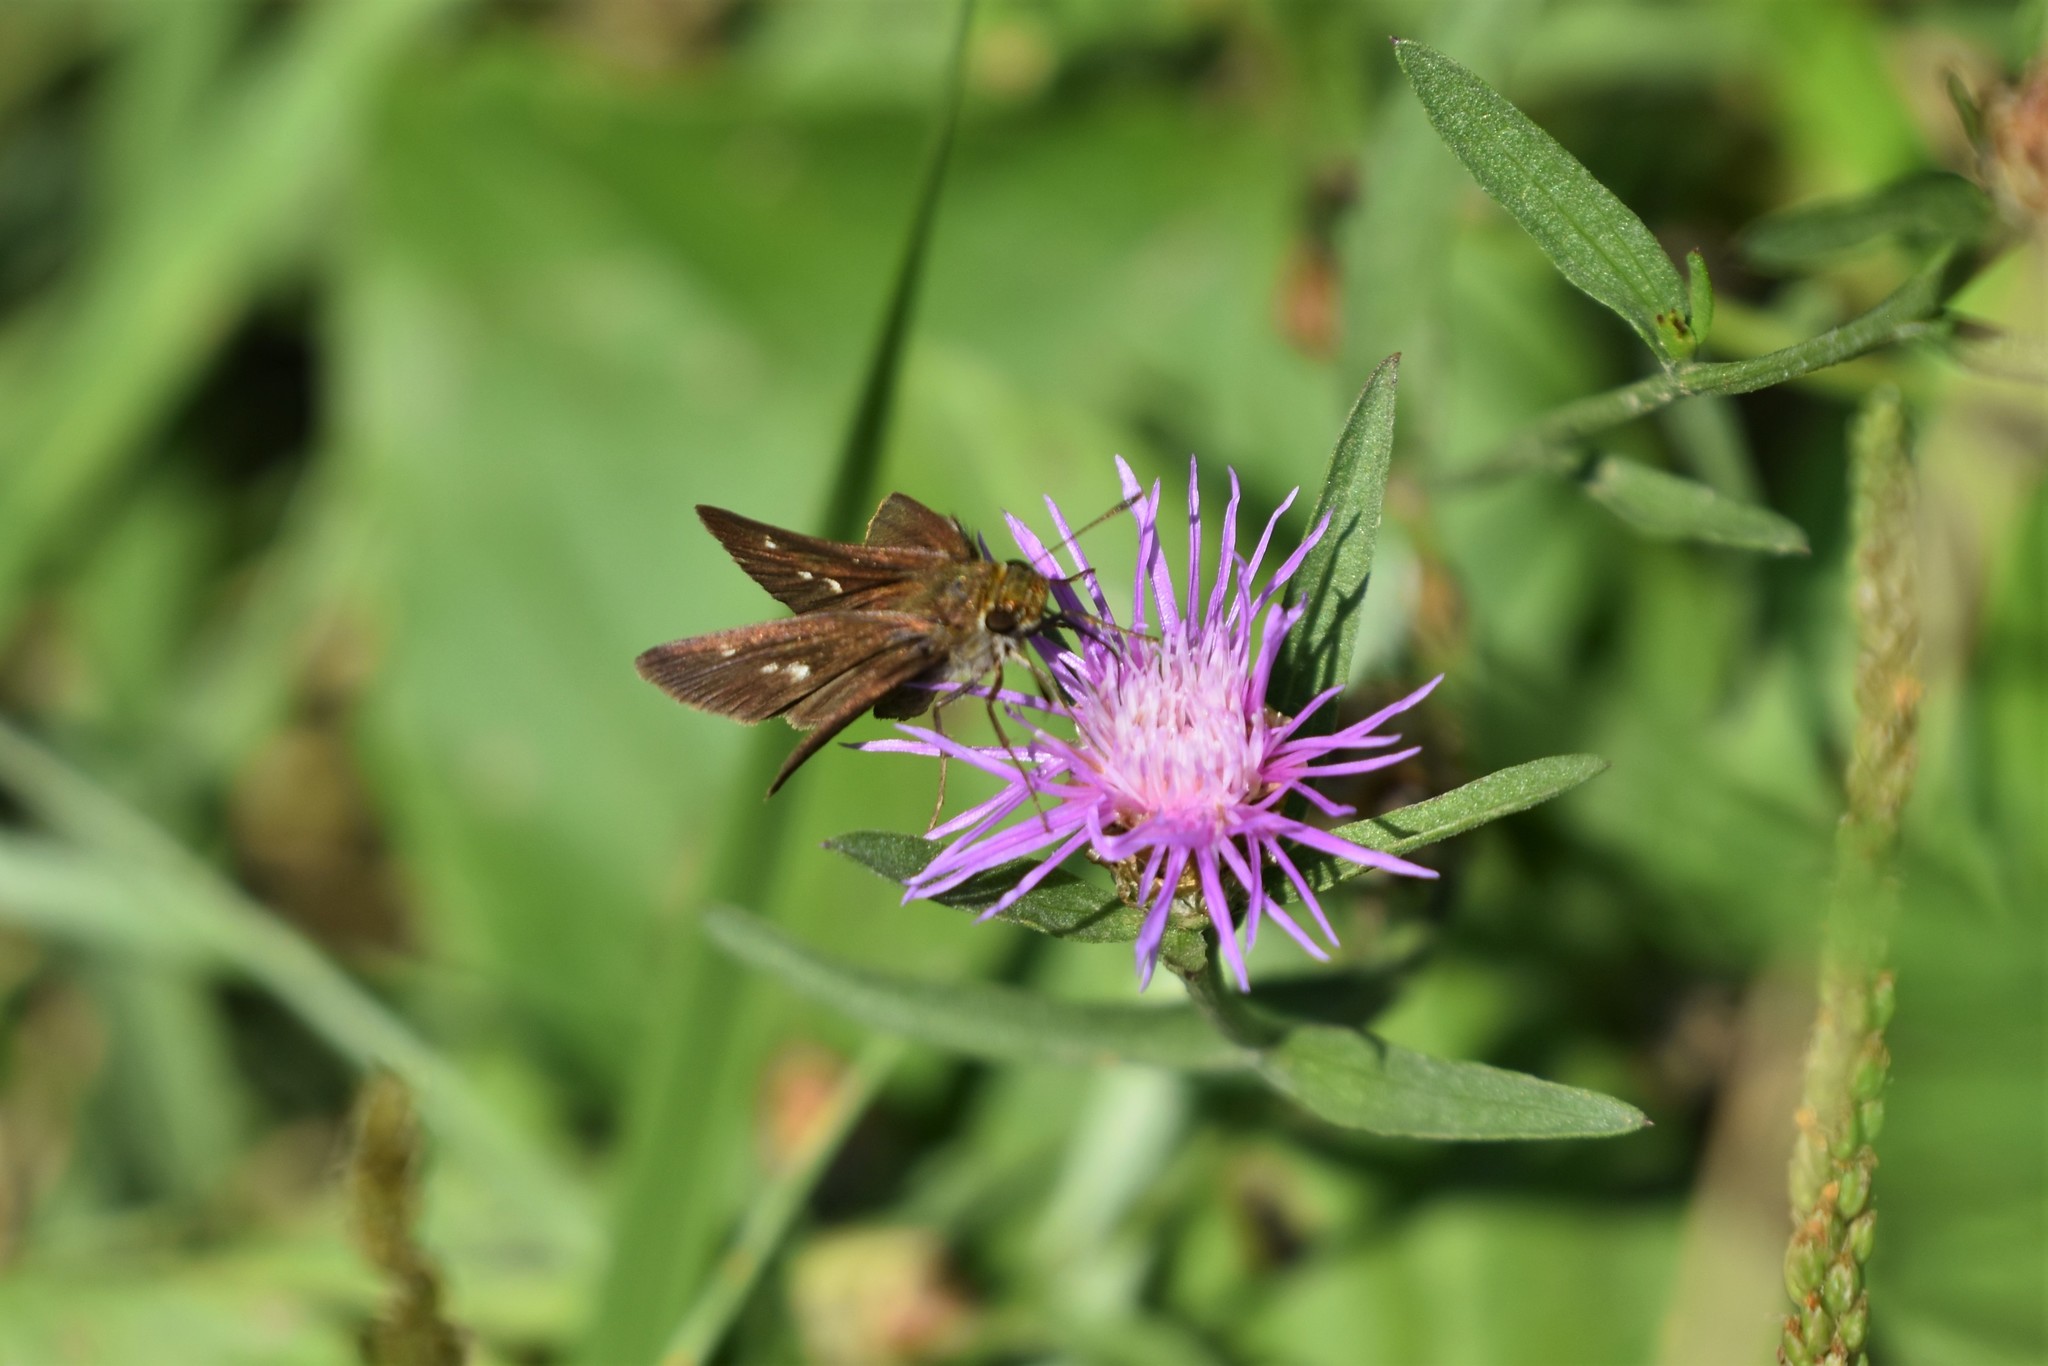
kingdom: Animalia
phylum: Arthropoda
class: Insecta
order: Lepidoptera
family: Hesperiidae
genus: Euphyes
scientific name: Euphyes vestris
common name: Dun skipper
